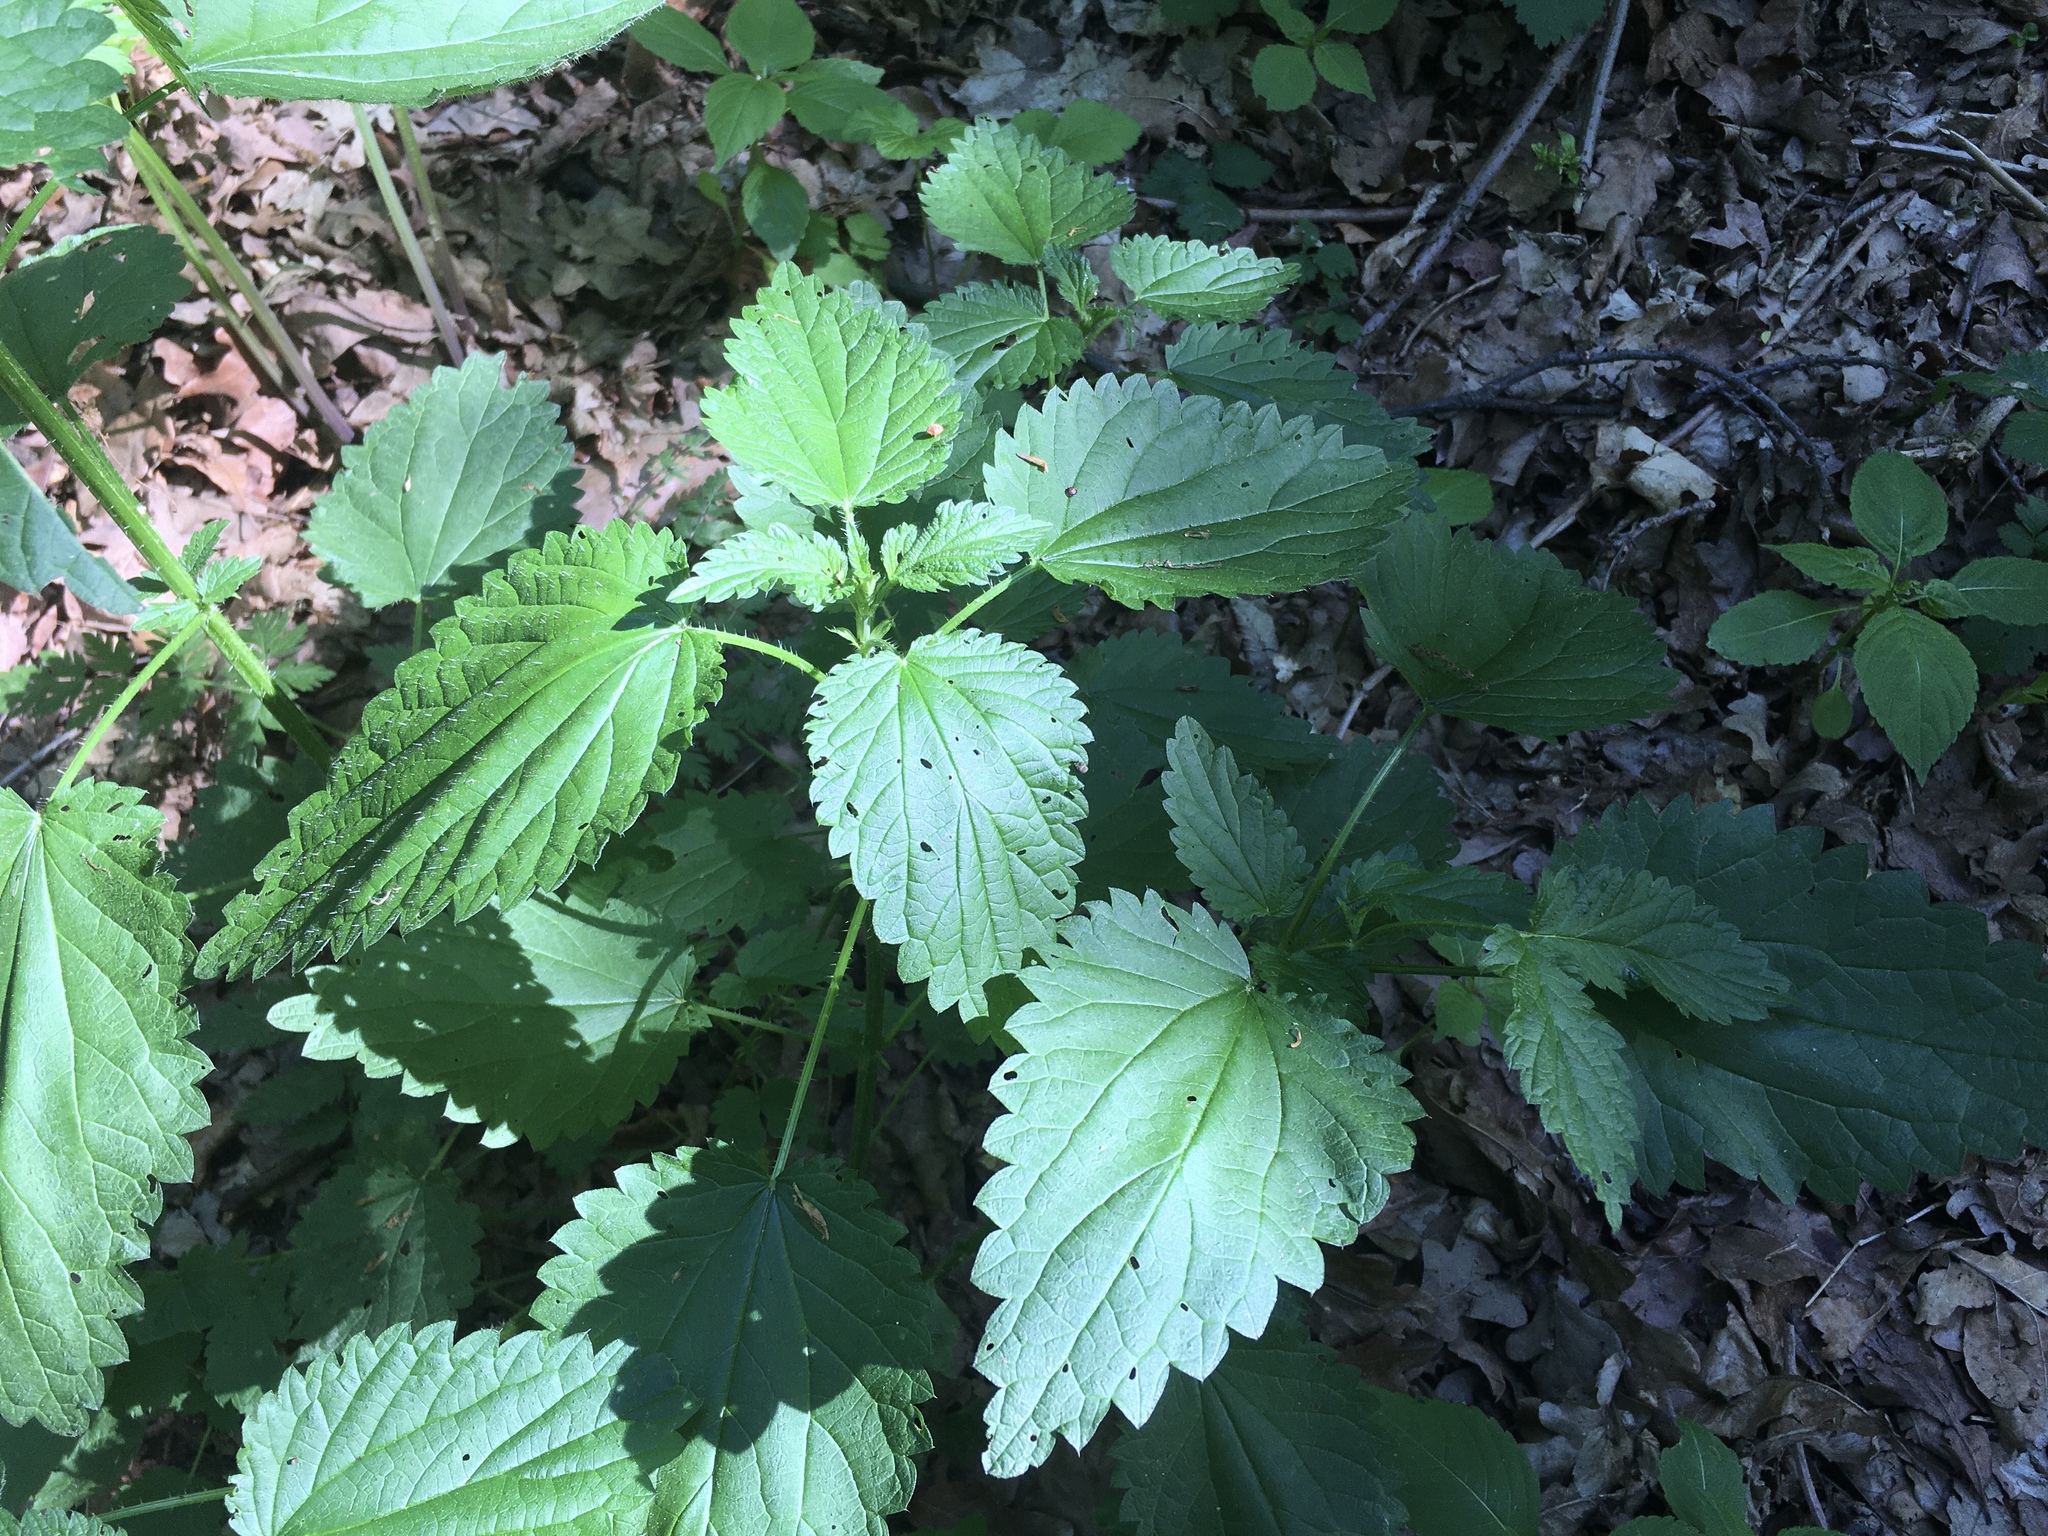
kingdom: Plantae
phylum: Tracheophyta
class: Magnoliopsida
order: Rosales
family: Urticaceae
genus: Urtica
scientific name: Urtica dioica
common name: Common nettle
